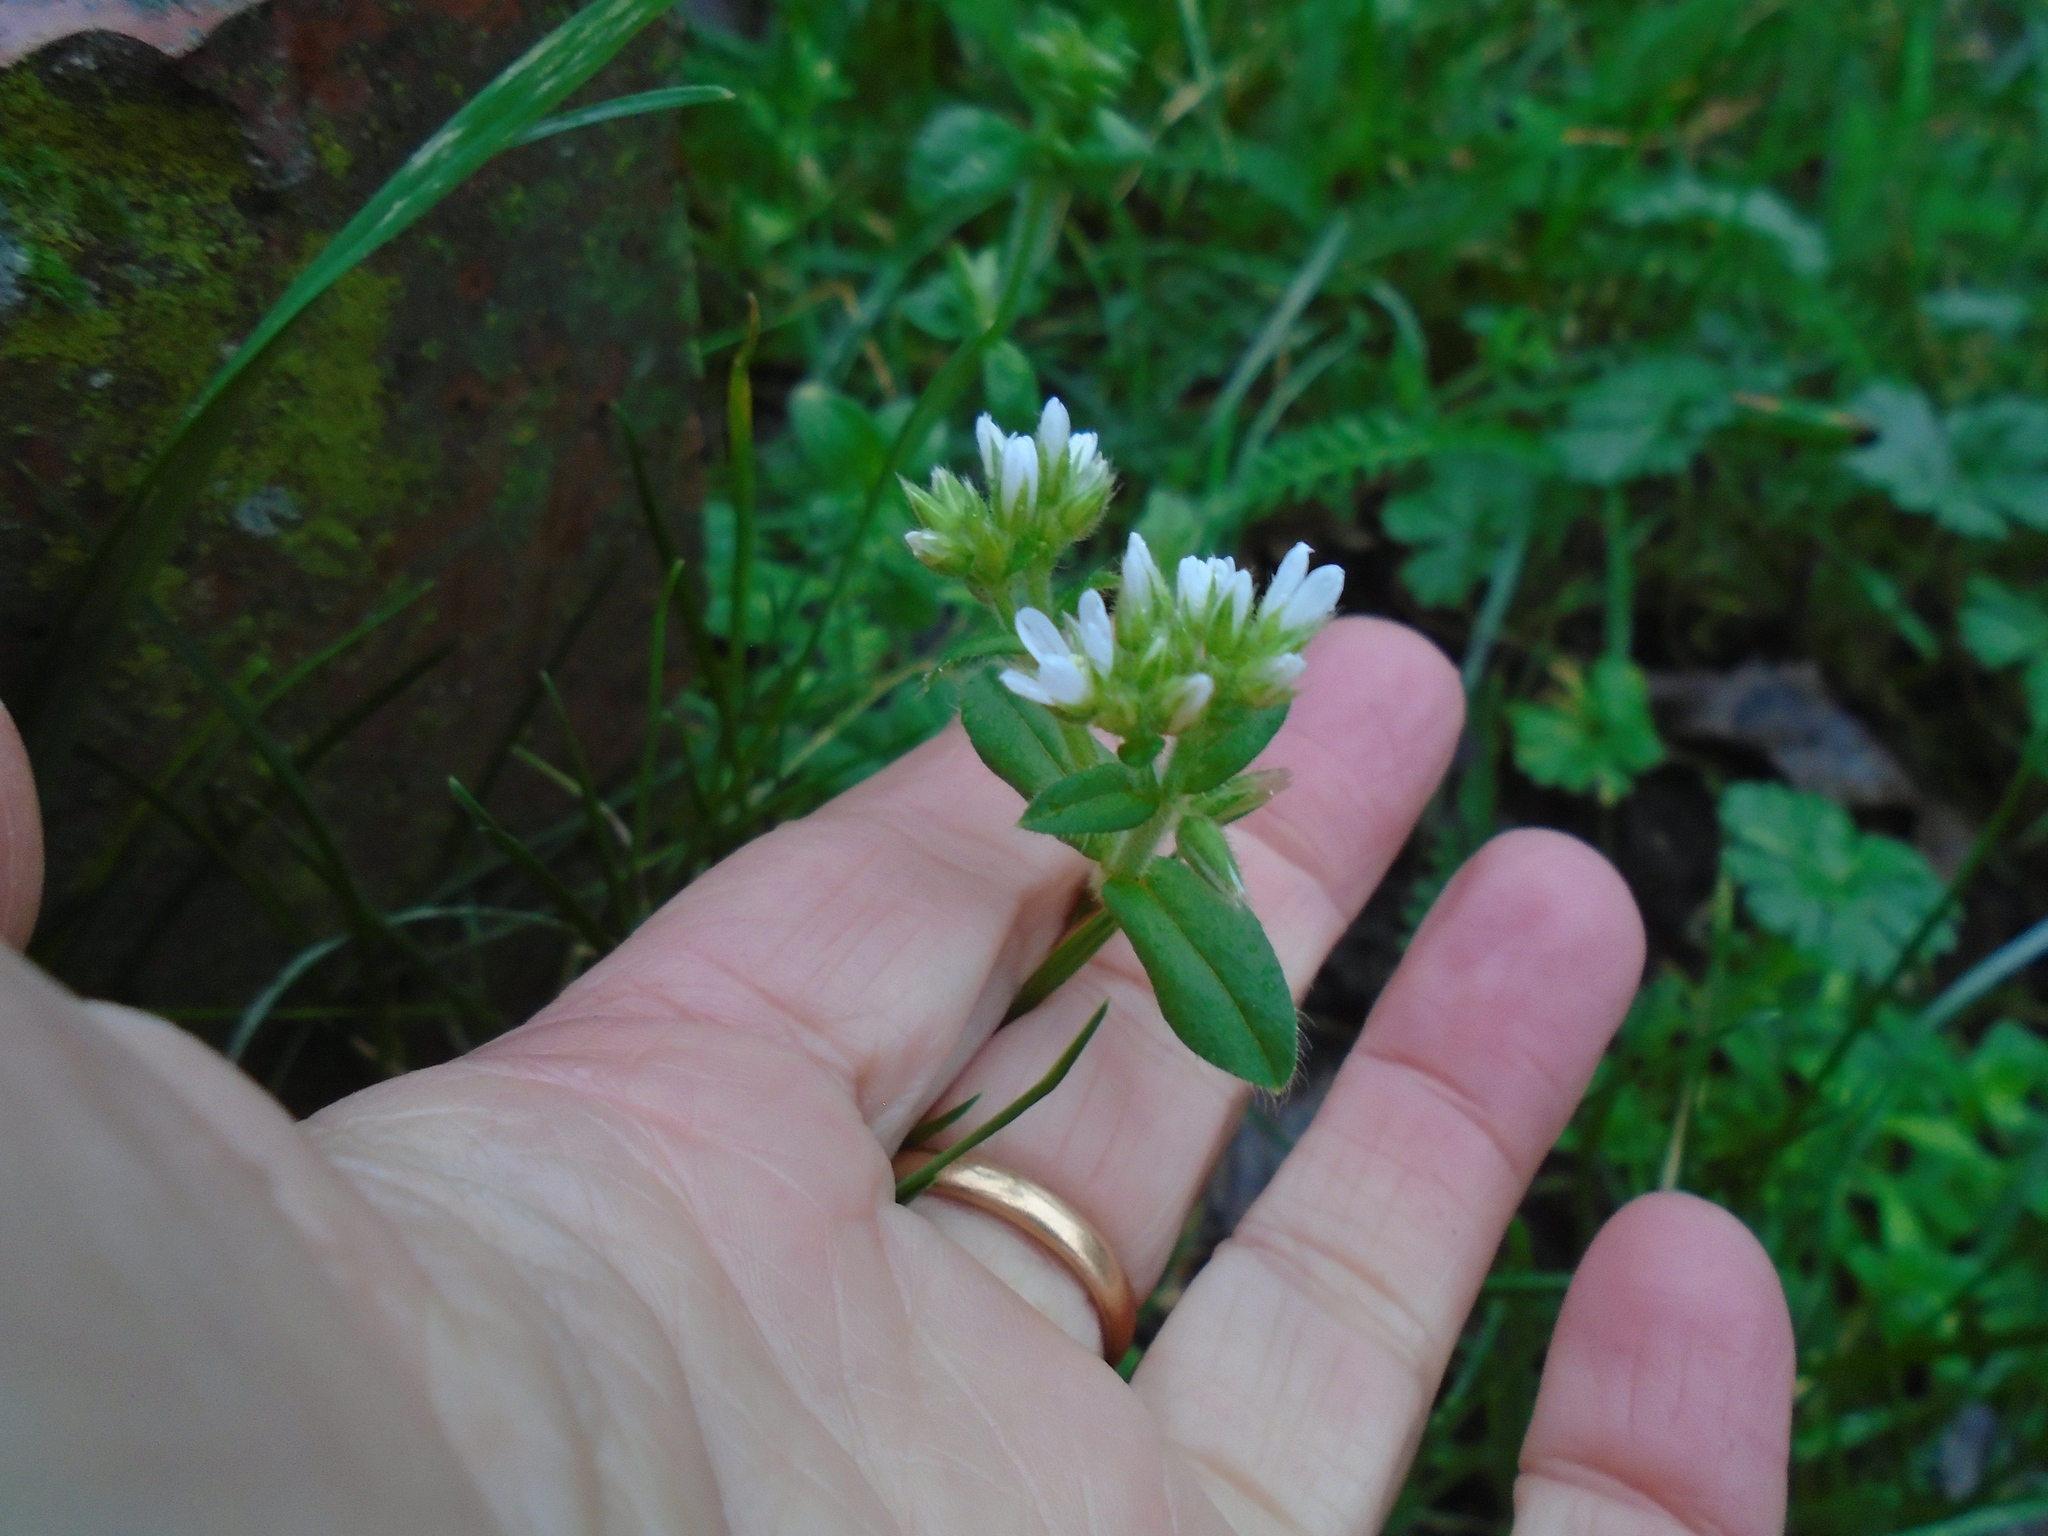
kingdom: Plantae
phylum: Tracheophyta
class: Magnoliopsida
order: Caryophyllales
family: Caryophyllaceae
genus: Cerastium
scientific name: Cerastium glomeratum
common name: Sticky chickweed
